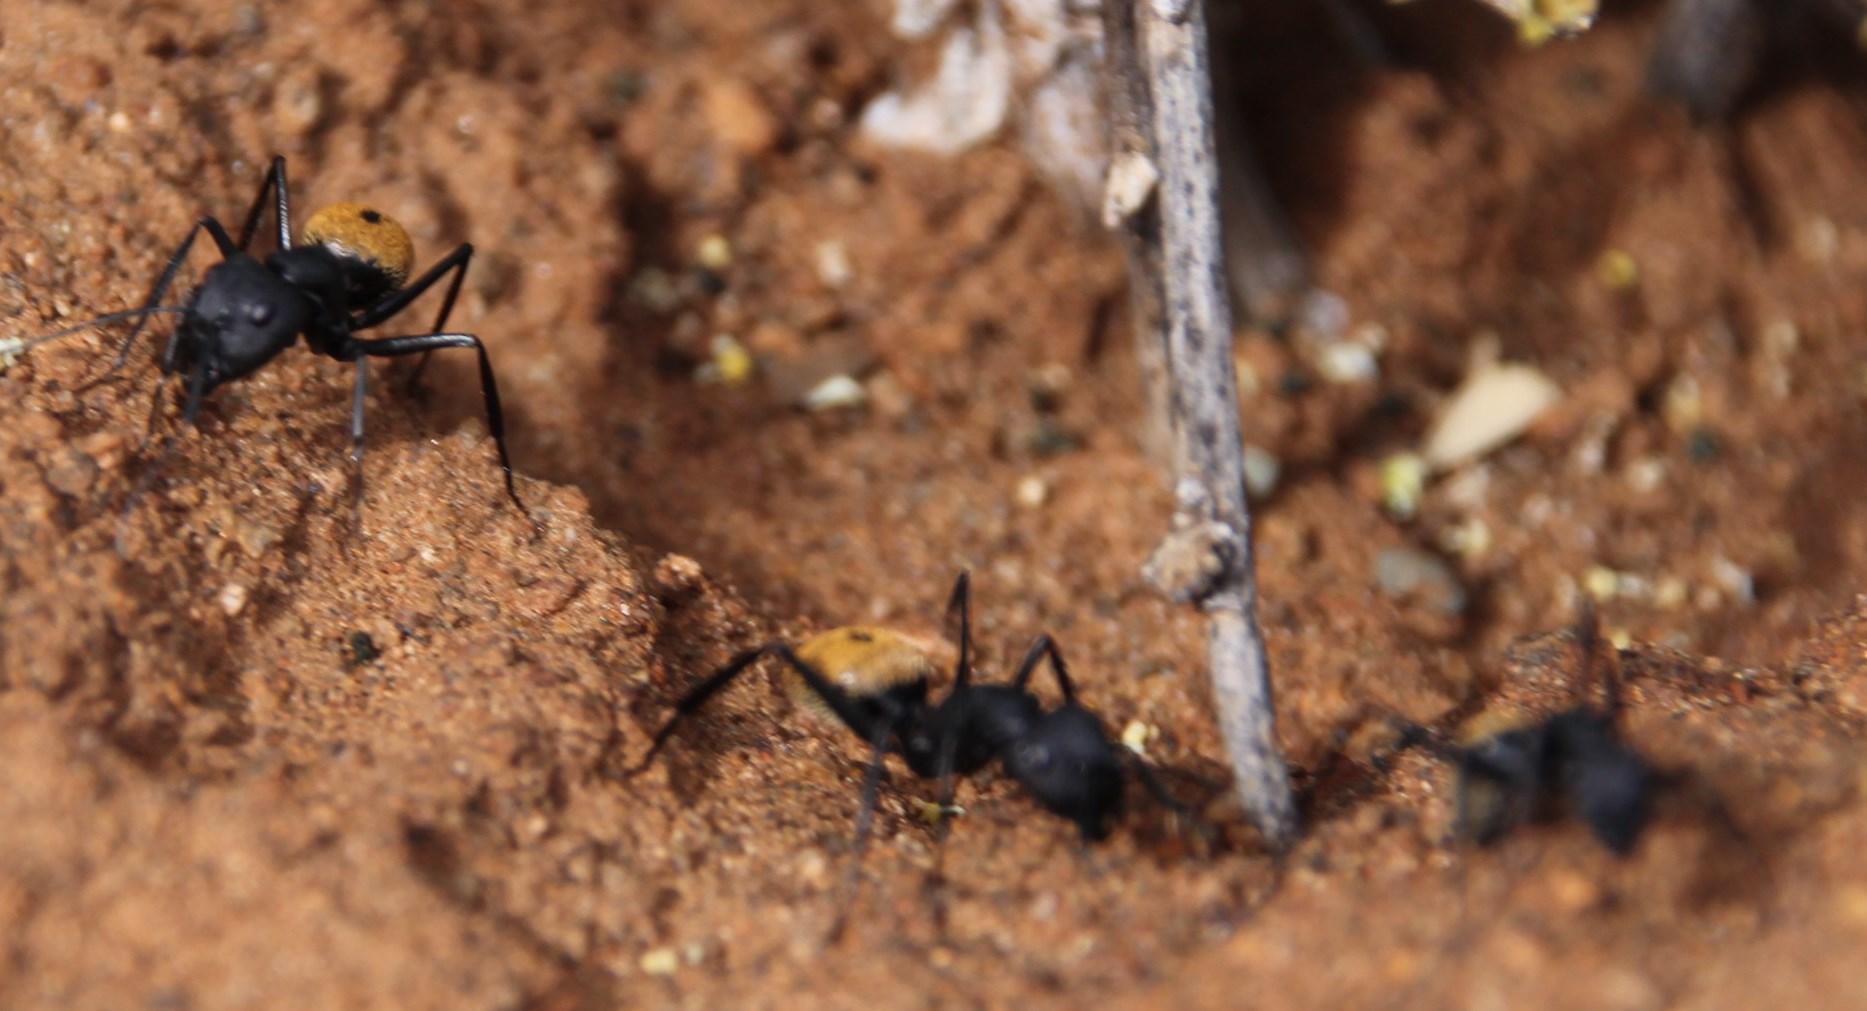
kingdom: Animalia
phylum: Arthropoda
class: Insecta
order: Hymenoptera
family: Formicidae
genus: Camponotus
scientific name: Camponotus fulvopilosus
